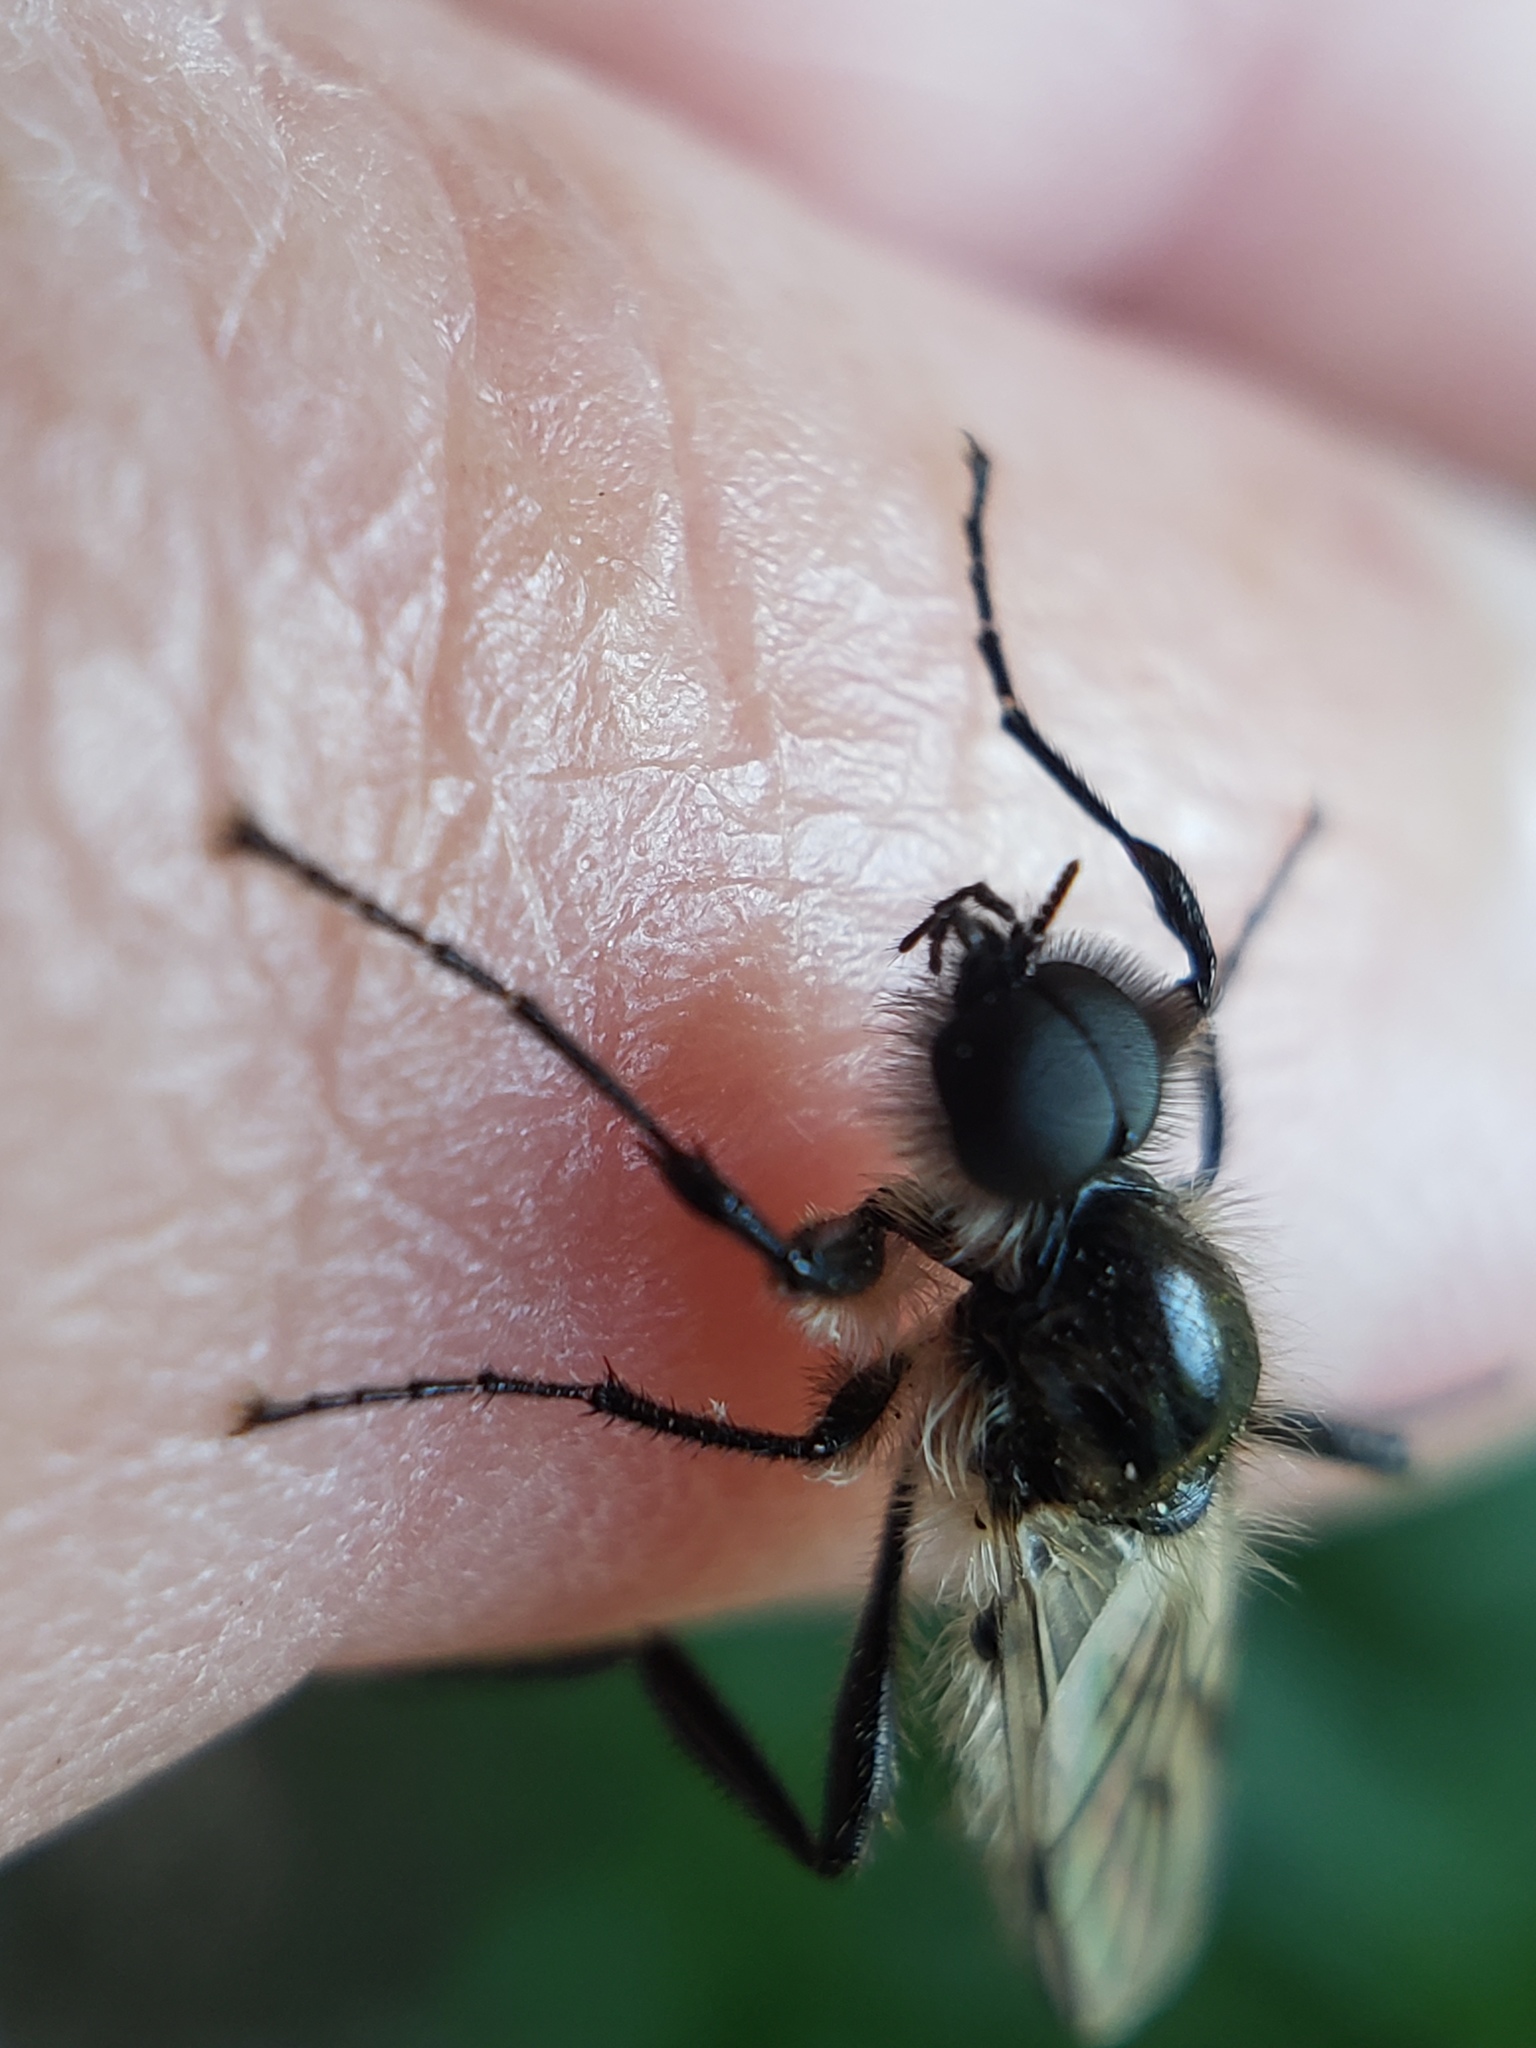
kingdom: Animalia
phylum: Arthropoda
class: Insecta
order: Diptera
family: Bibionidae
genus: Bibio
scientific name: Bibio albipennis
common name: White-winged march fly
